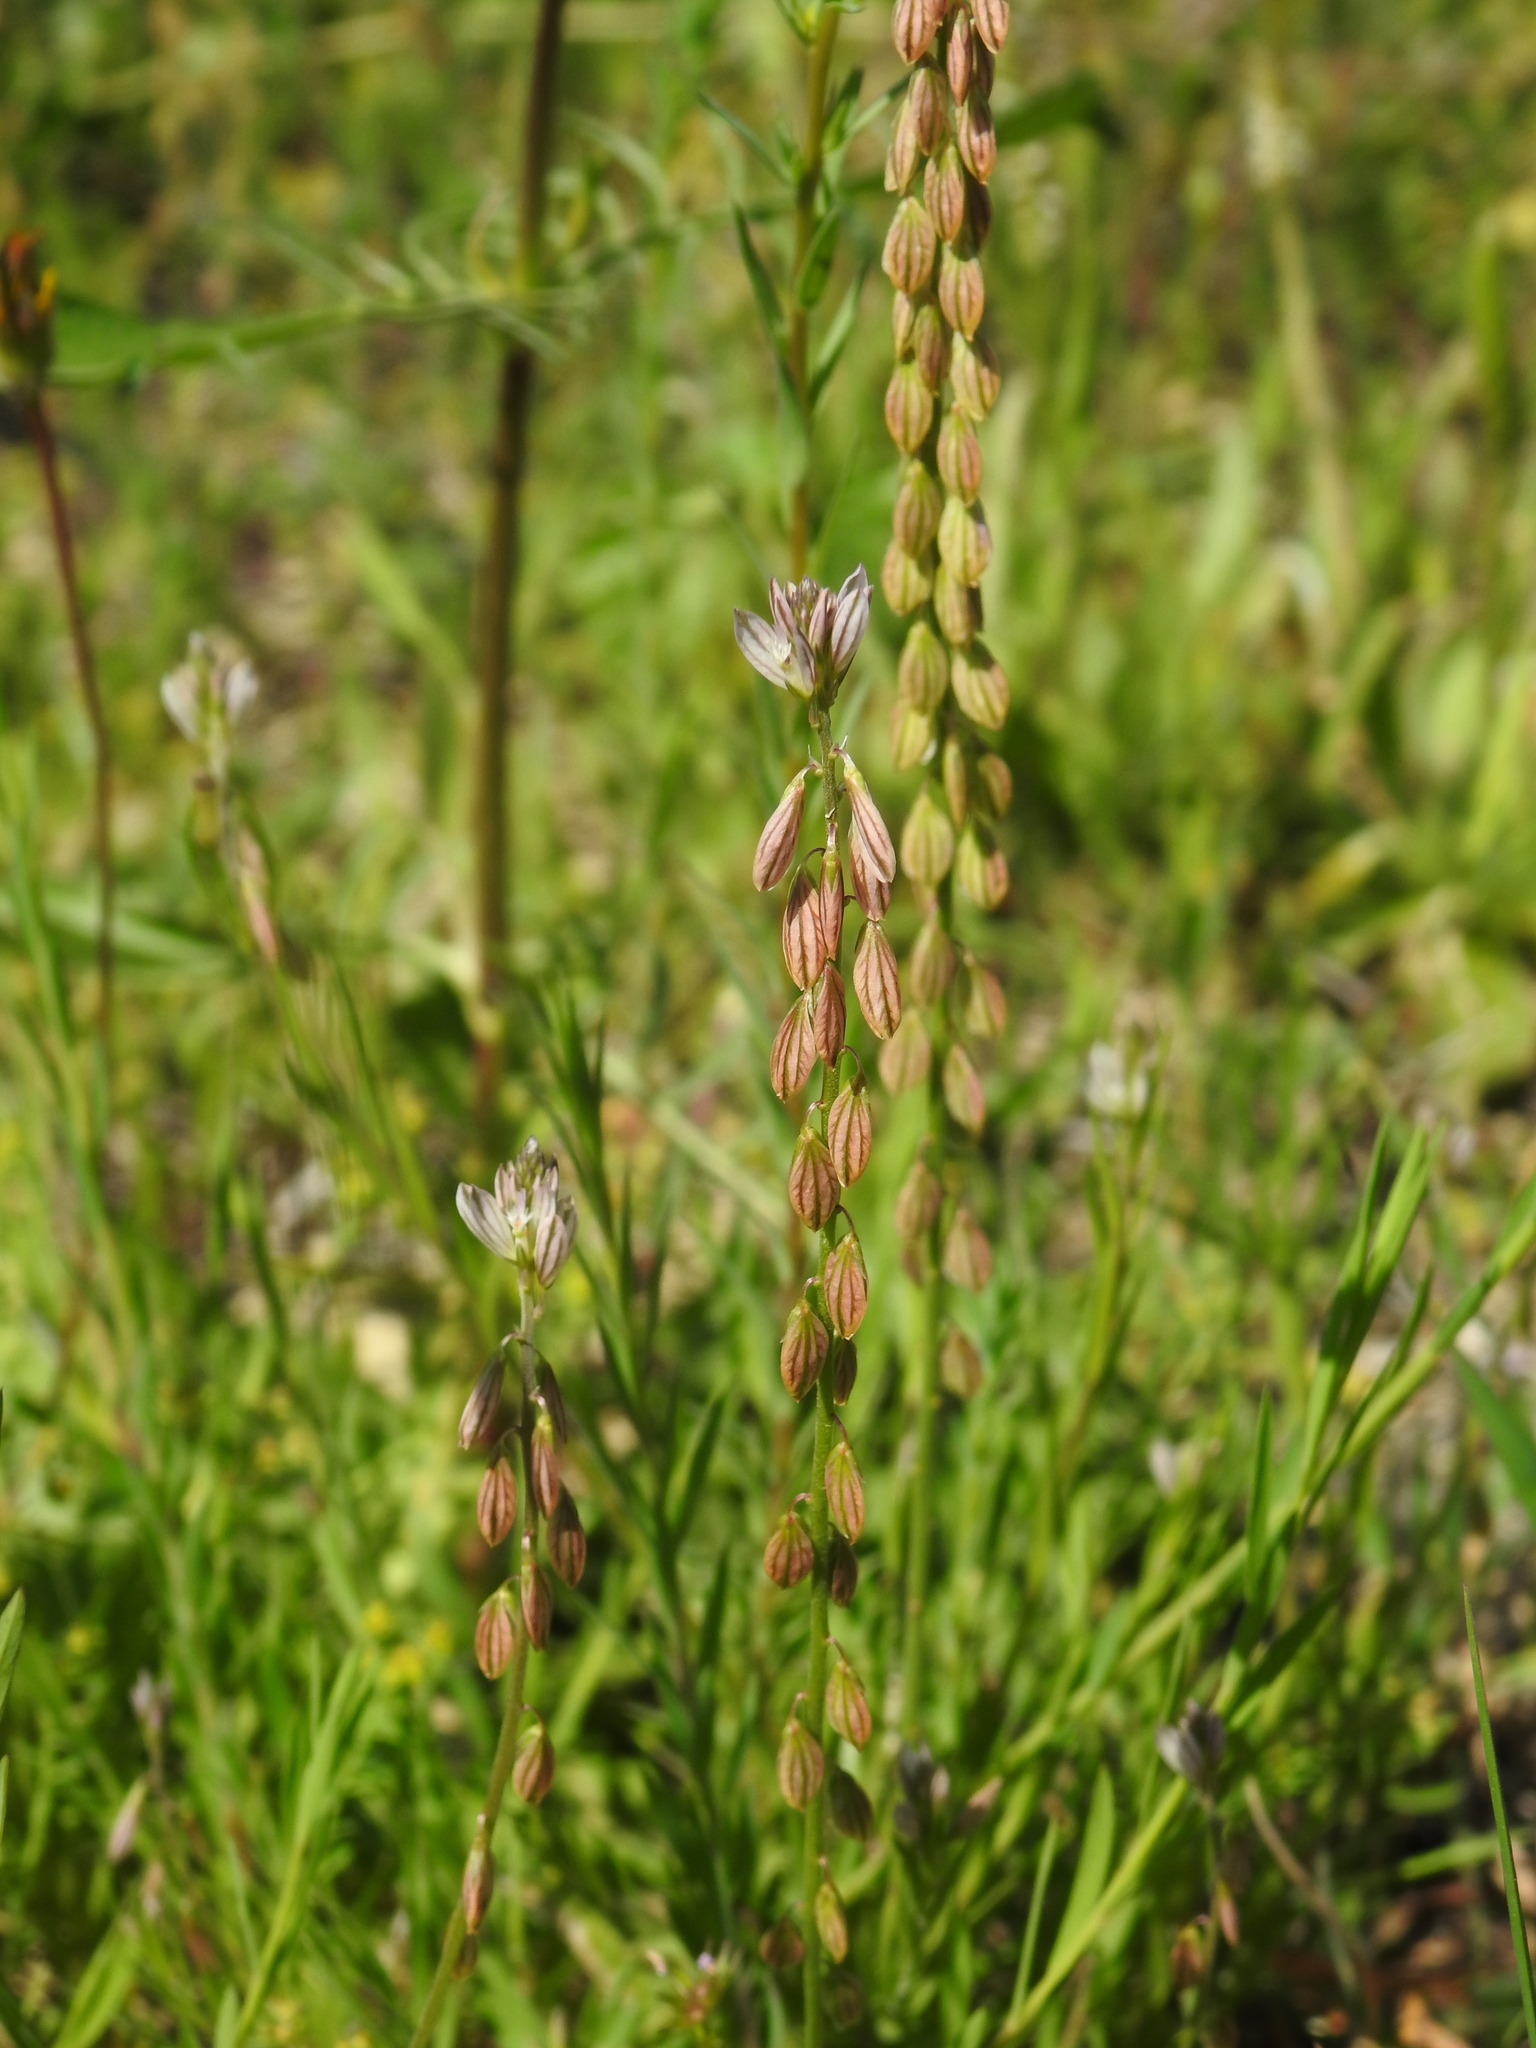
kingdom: Plantae
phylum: Tracheophyta
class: Magnoliopsida
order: Fabales
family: Polygalaceae
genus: Polygala
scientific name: Polygala monspeliaca
